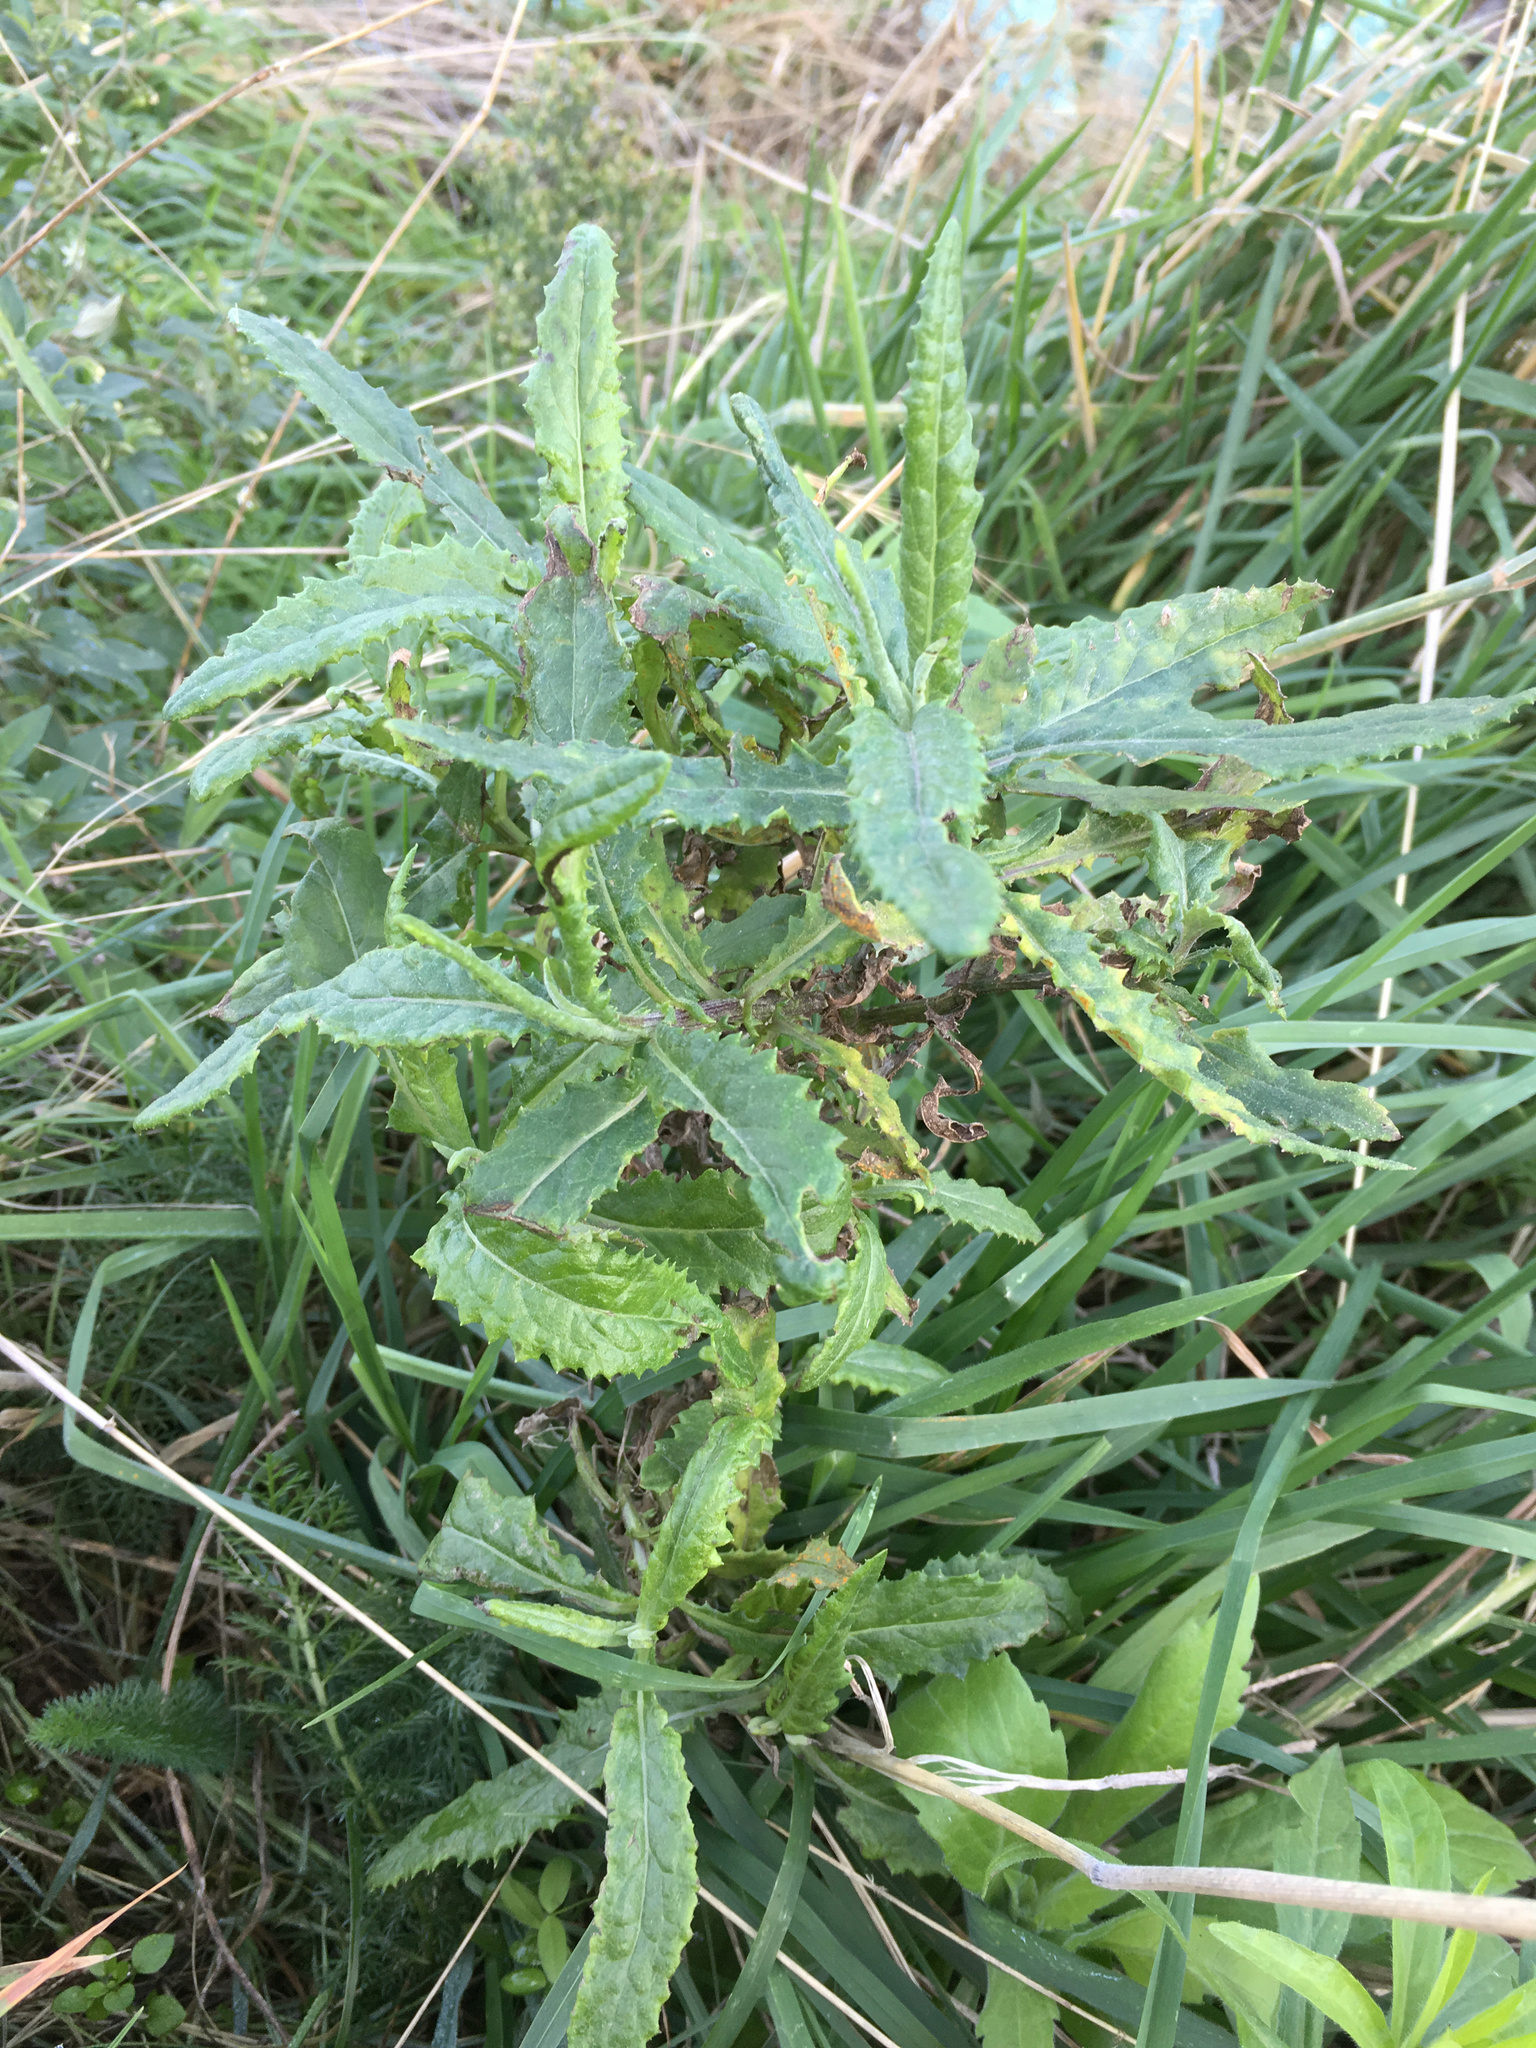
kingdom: Plantae
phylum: Tracheophyta
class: Magnoliopsida
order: Asterales
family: Asteraceae
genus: Senecio
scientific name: Senecio minimus
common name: Toothed fireweed
